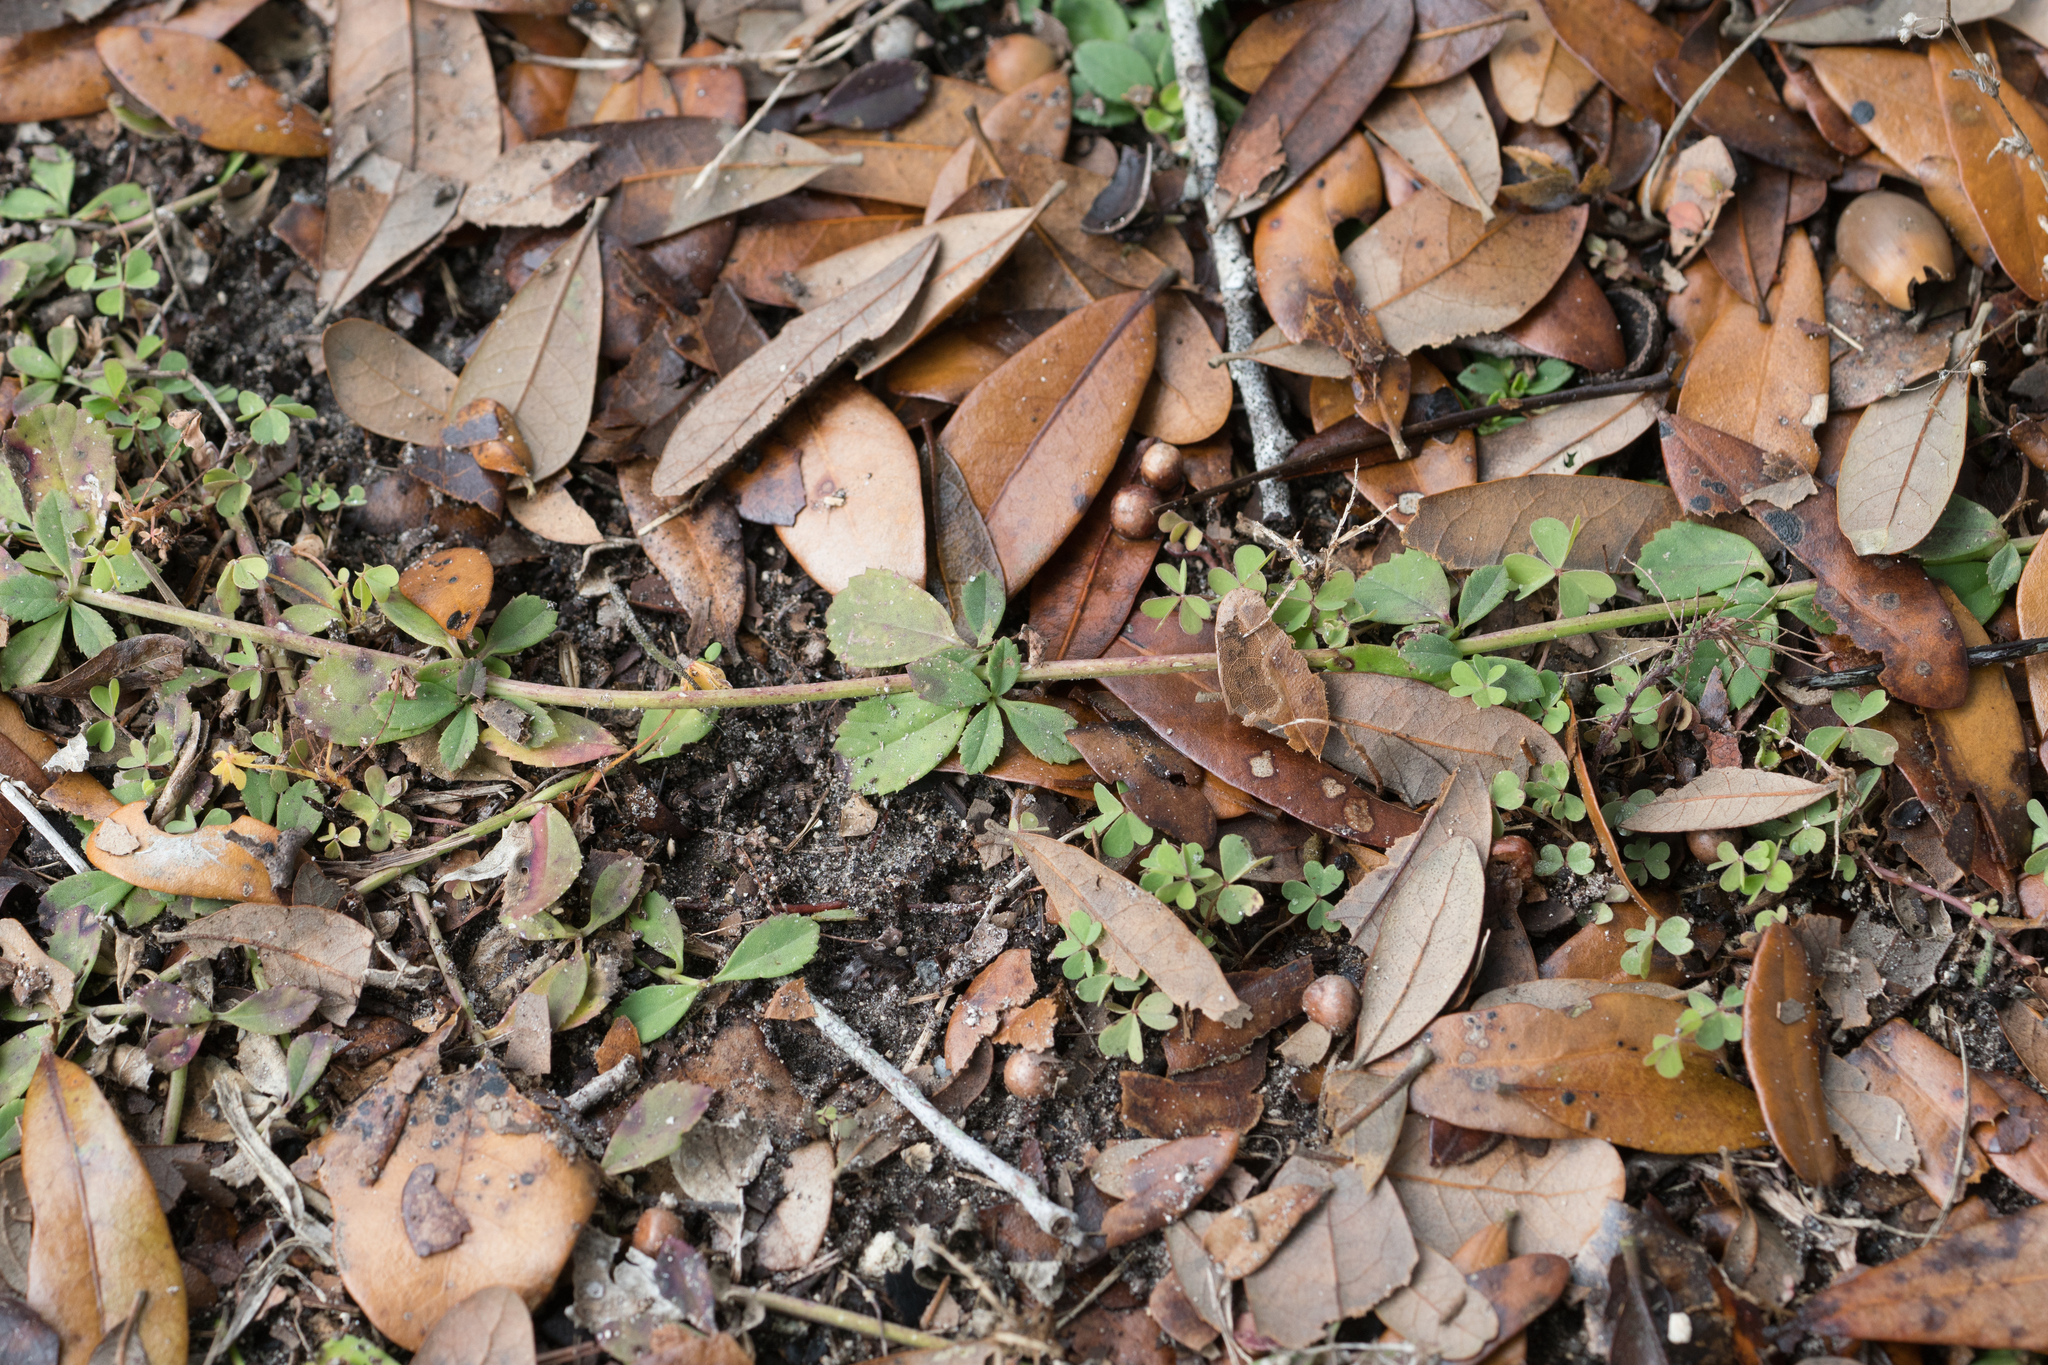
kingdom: Plantae
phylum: Tracheophyta
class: Magnoliopsida
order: Lamiales
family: Verbenaceae
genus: Phyla
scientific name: Phyla nodiflora
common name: Frogfruit
